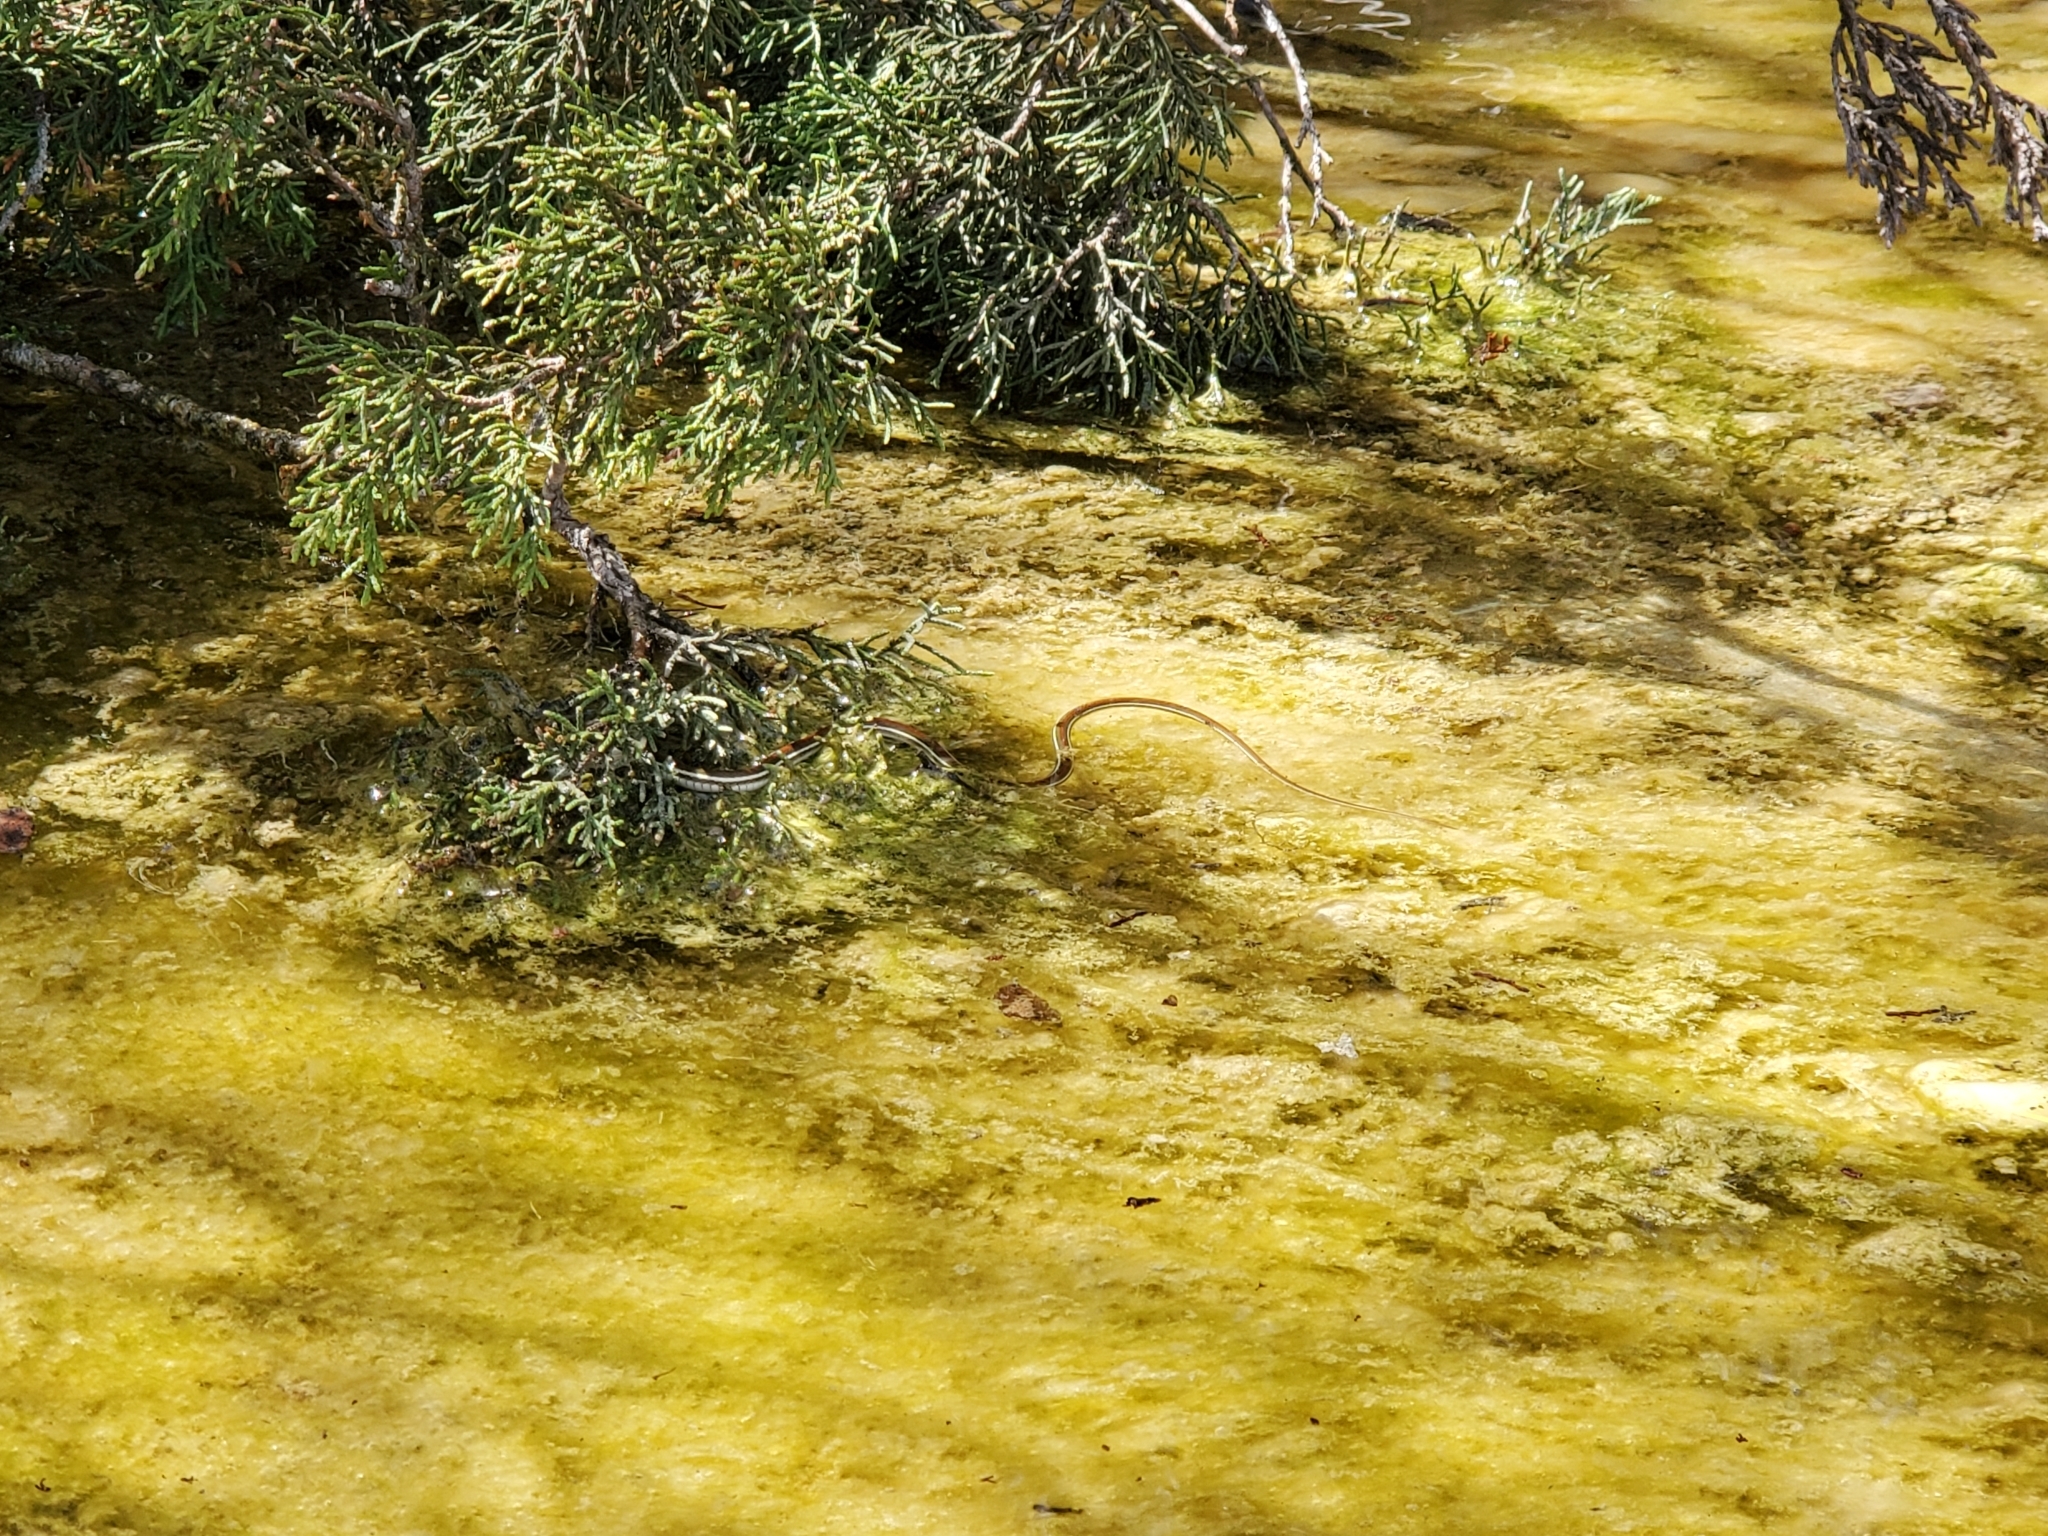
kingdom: Animalia
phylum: Chordata
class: Squamata
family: Colubridae
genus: Thamnophis
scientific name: Thamnophis proximus
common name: Western ribbon snake
